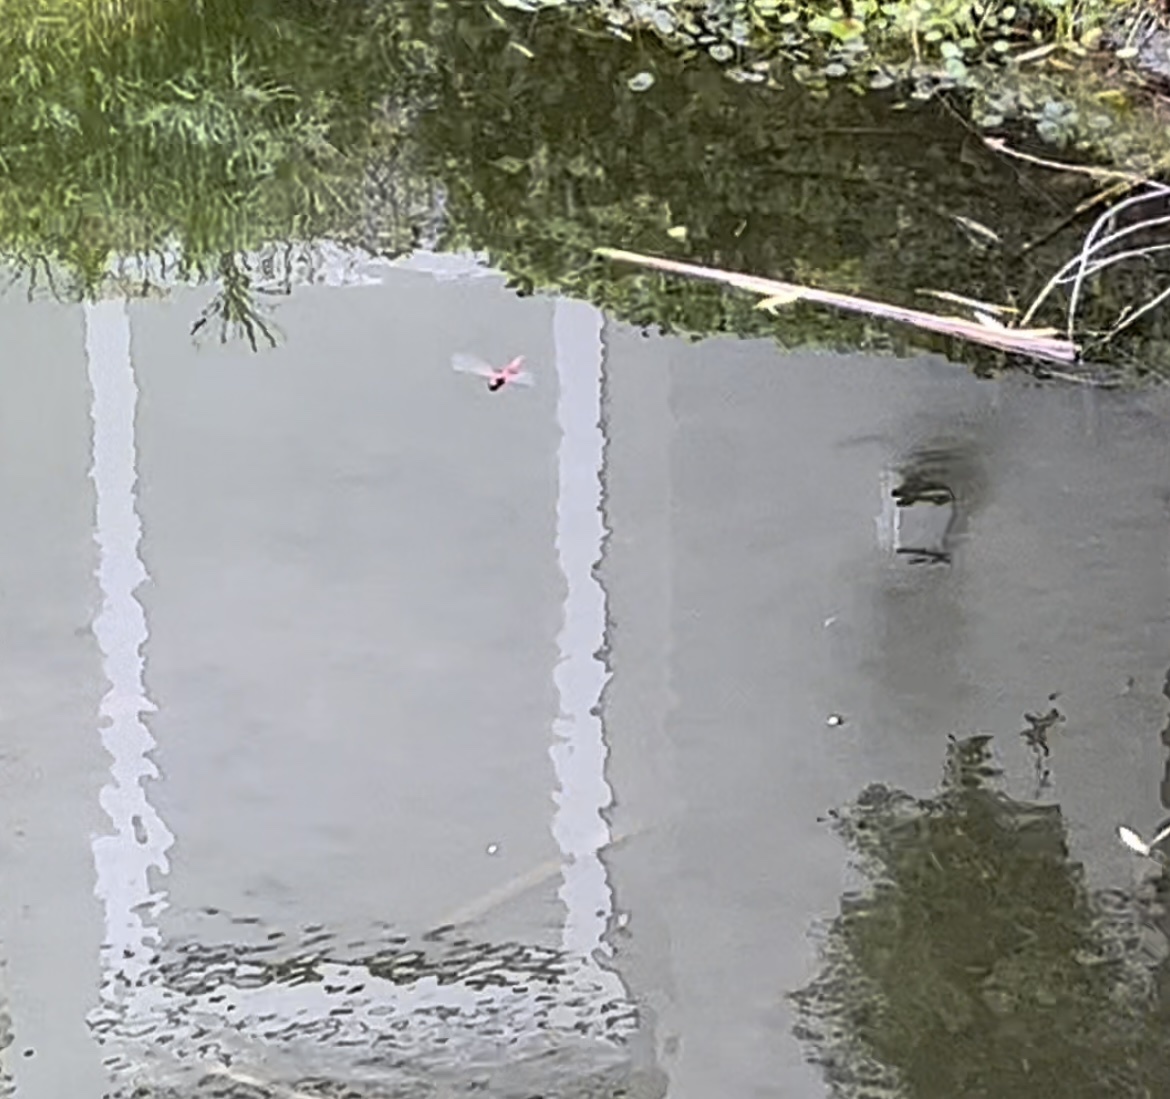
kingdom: Animalia
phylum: Arthropoda
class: Insecta
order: Odonata
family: Libellulidae
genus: Tramea
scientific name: Tramea carolina
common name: Carolina saddlebags
